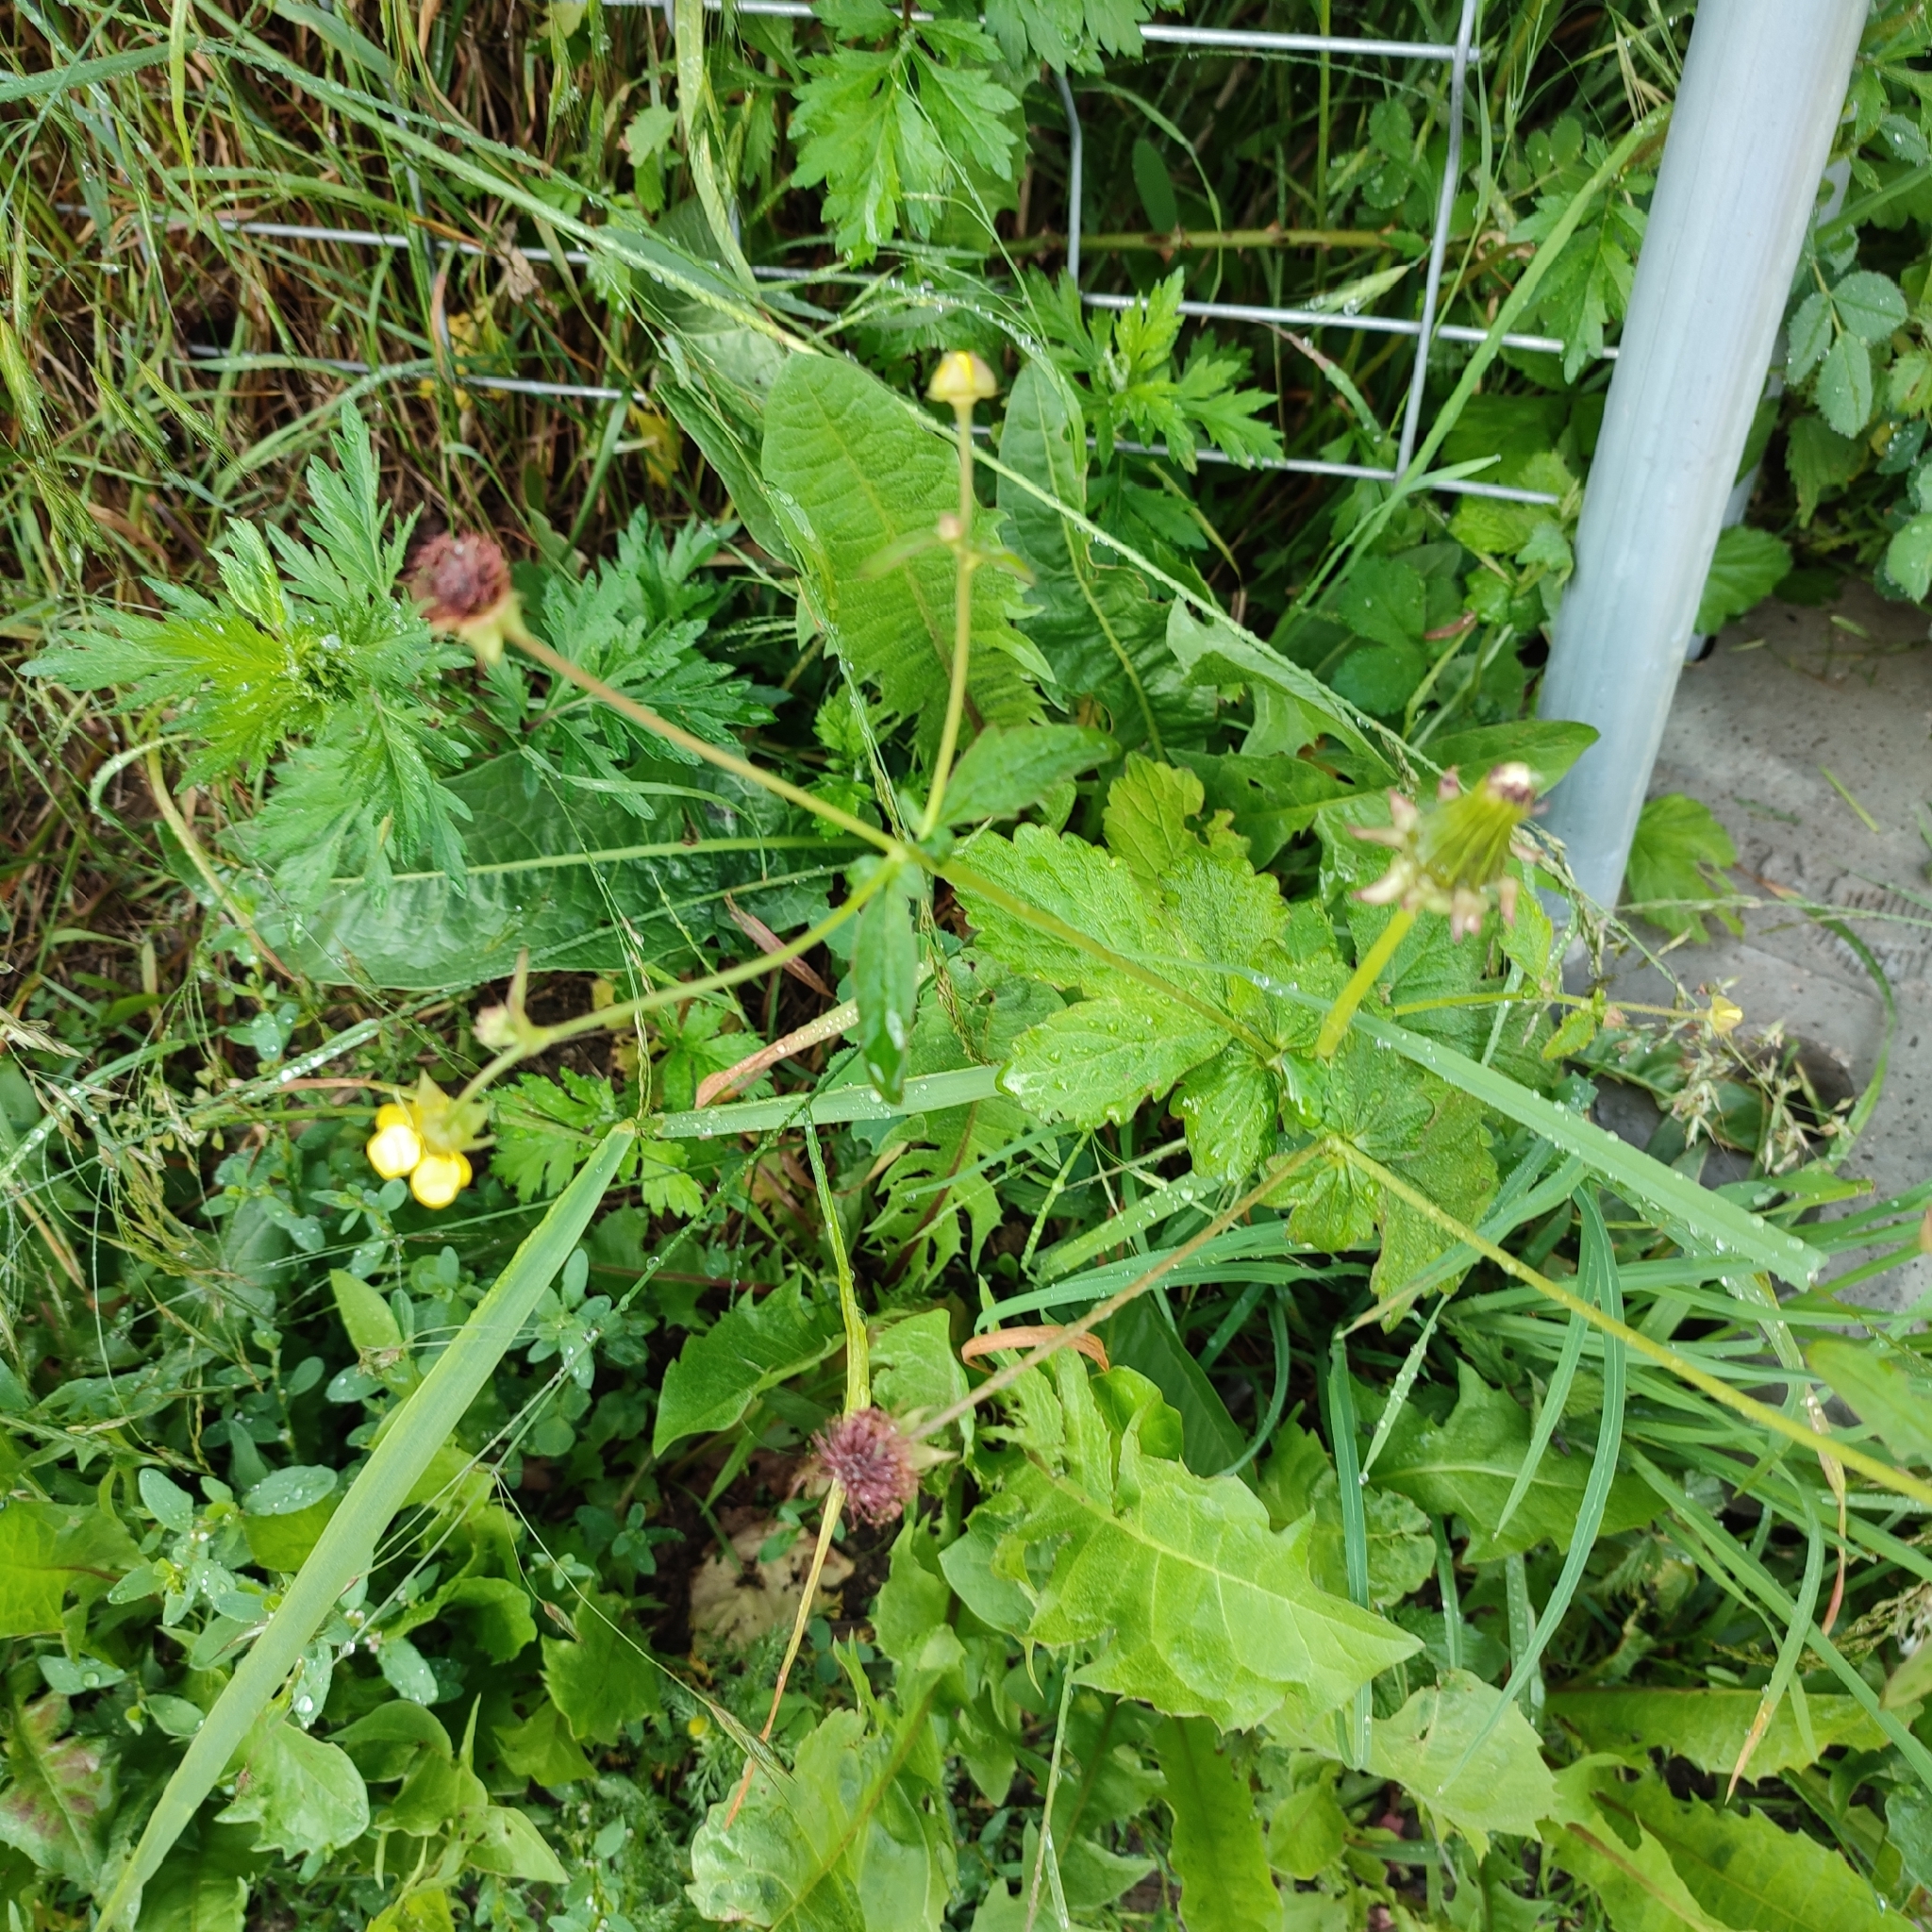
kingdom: Plantae
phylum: Tracheophyta
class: Magnoliopsida
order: Rosales
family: Rosaceae
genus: Geum
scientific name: Geum urbanum
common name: Wood avens
